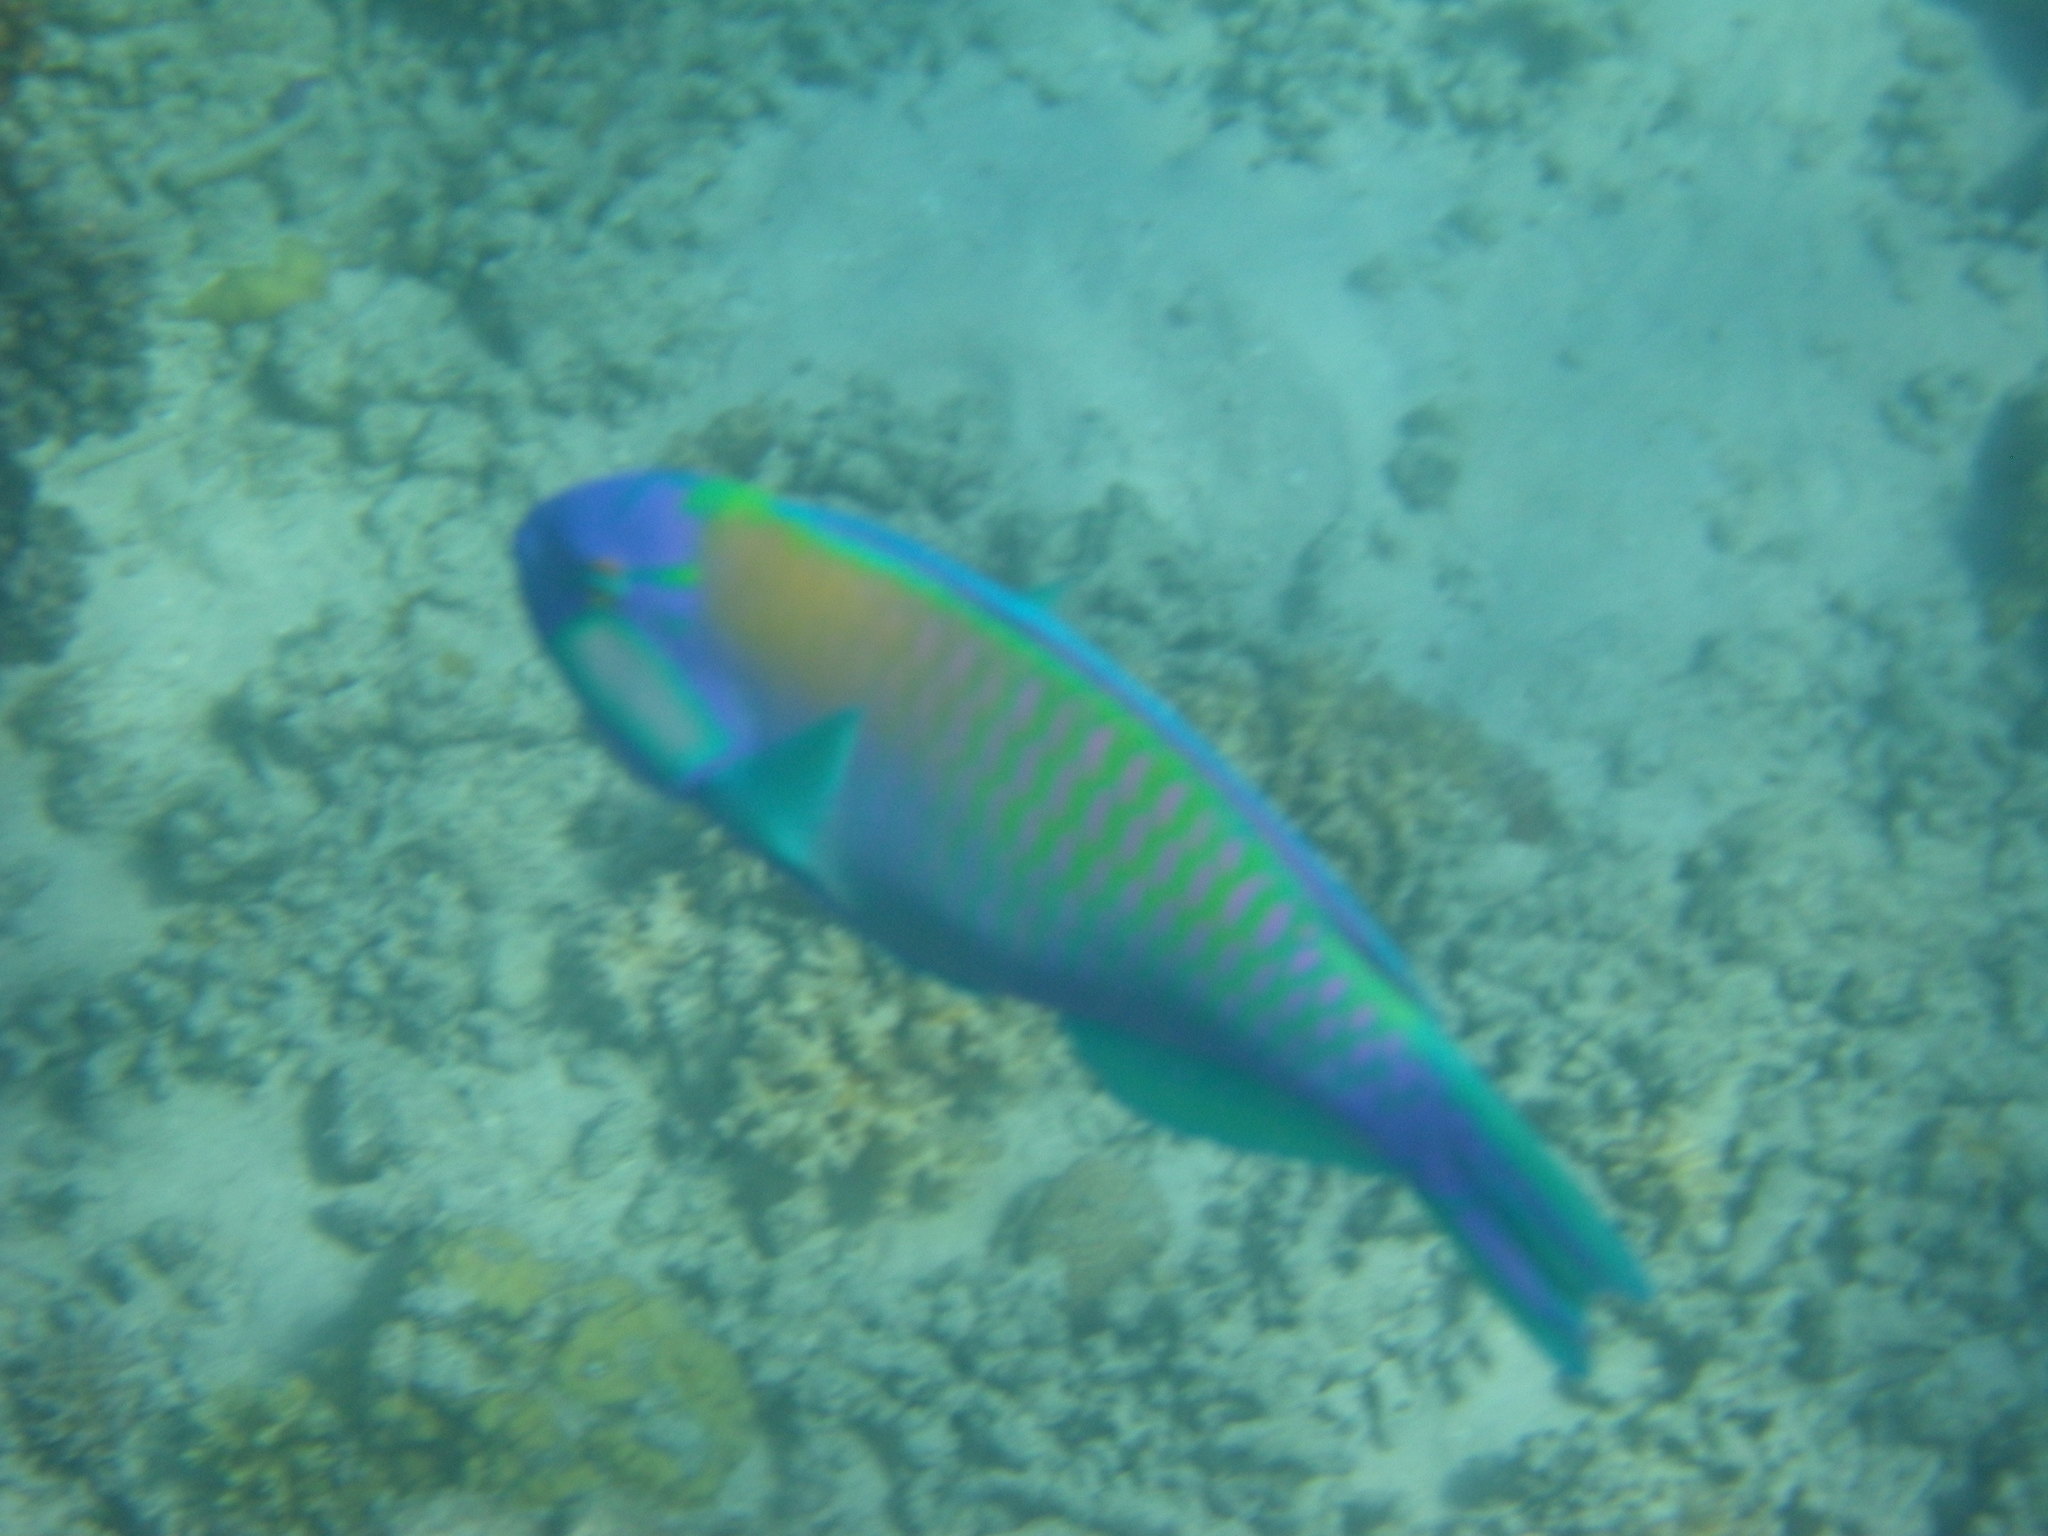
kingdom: Animalia
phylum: Chordata
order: Perciformes
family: Scaridae
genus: Chlorurus
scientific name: Chlorurus bleekeri
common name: Bleeker's parrotfish
